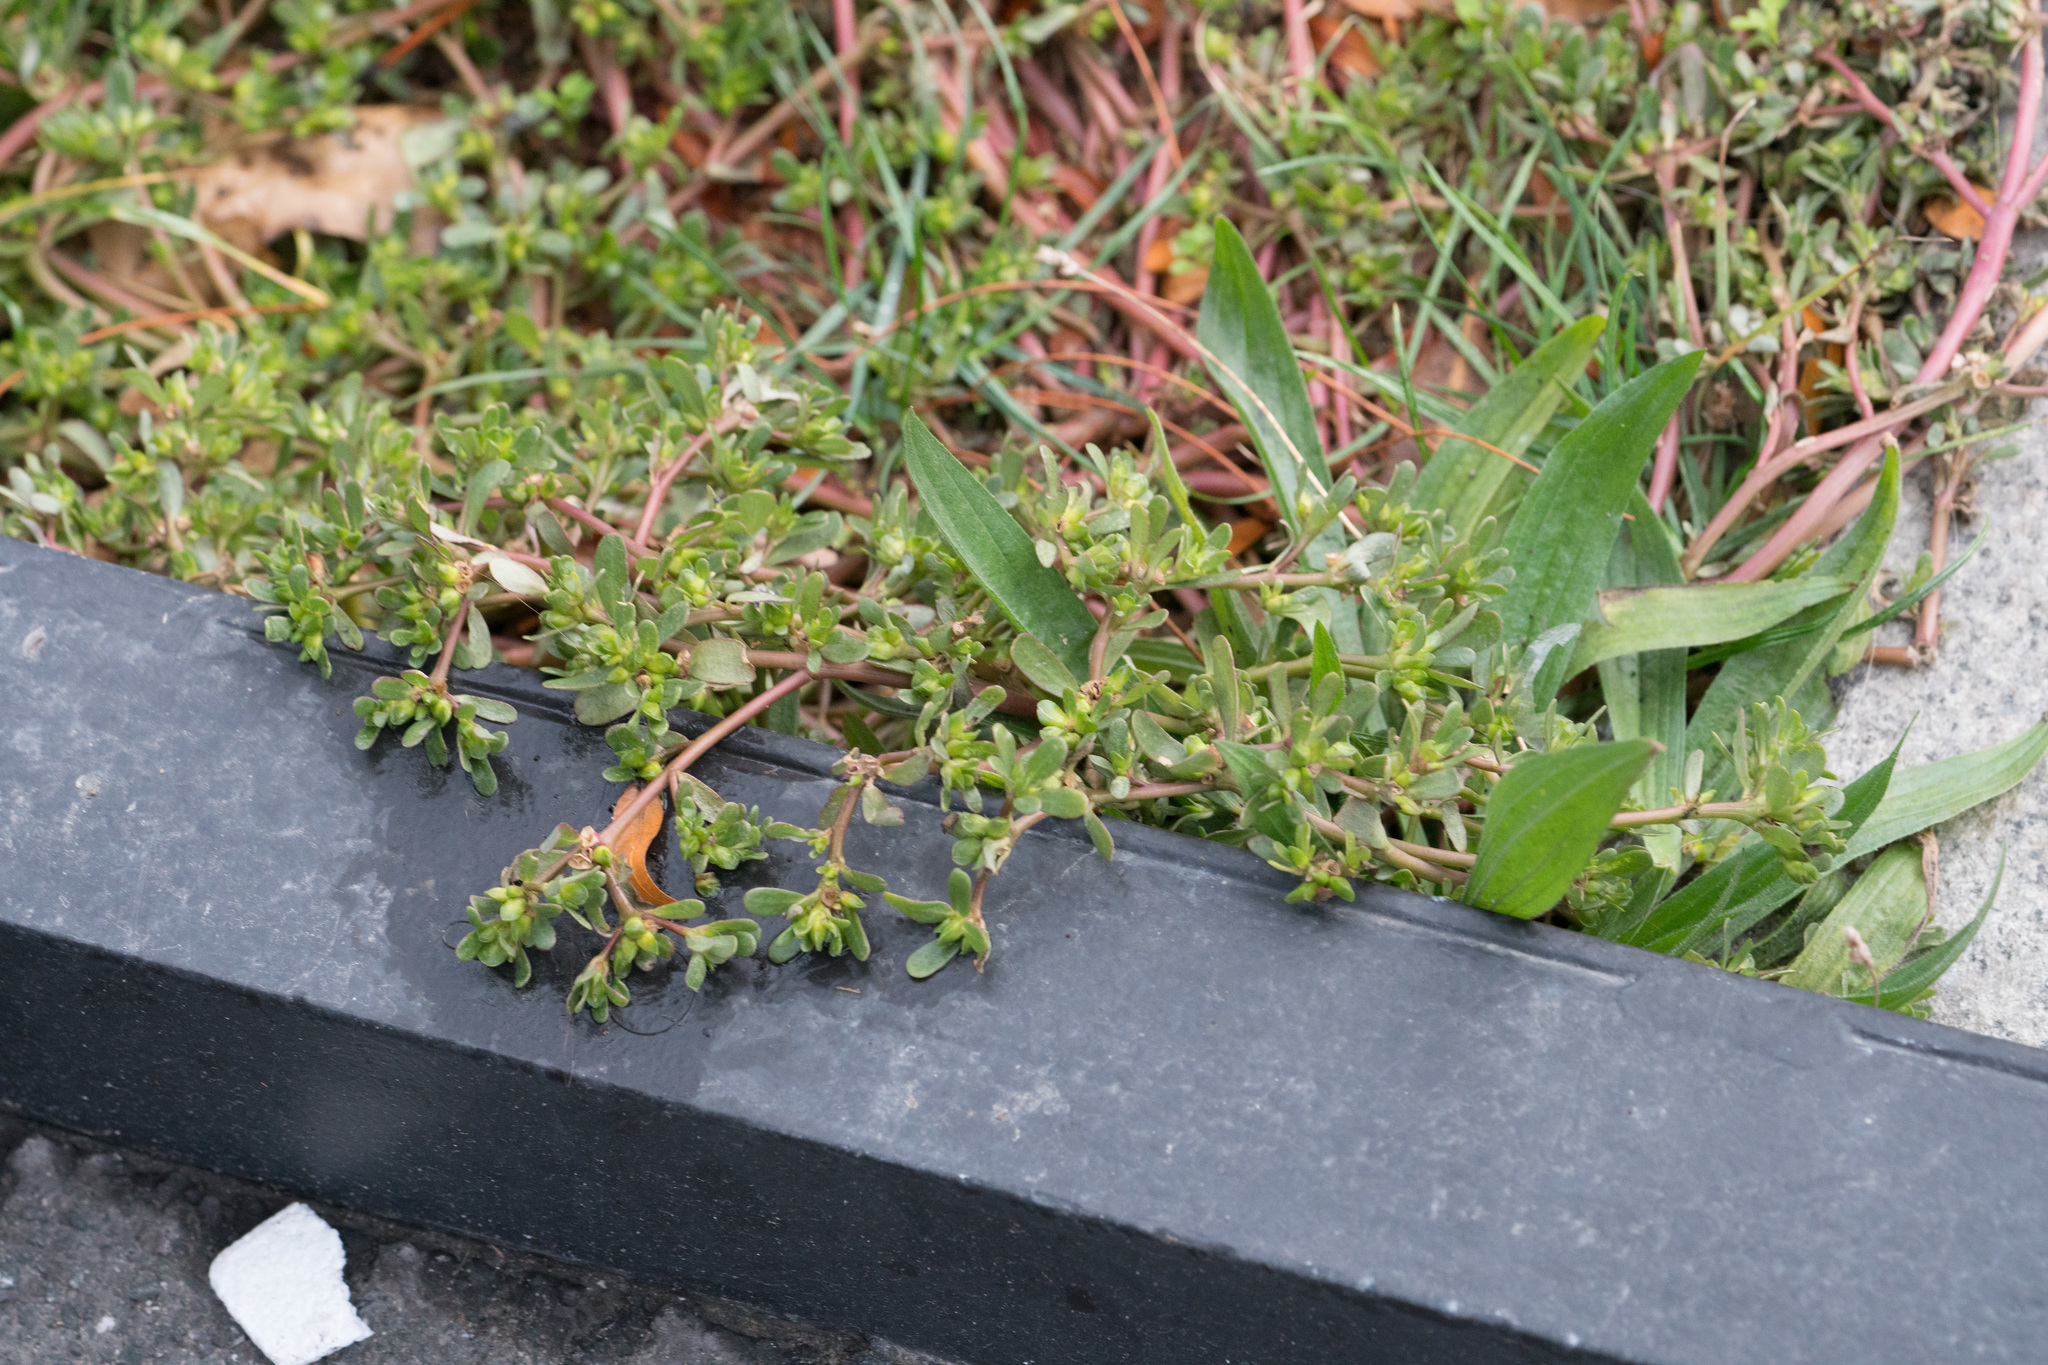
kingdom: Plantae
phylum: Tracheophyta
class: Magnoliopsida
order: Caryophyllales
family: Portulacaceae
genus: Portulaca
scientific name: Portulaca oleracea
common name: Common purslane
